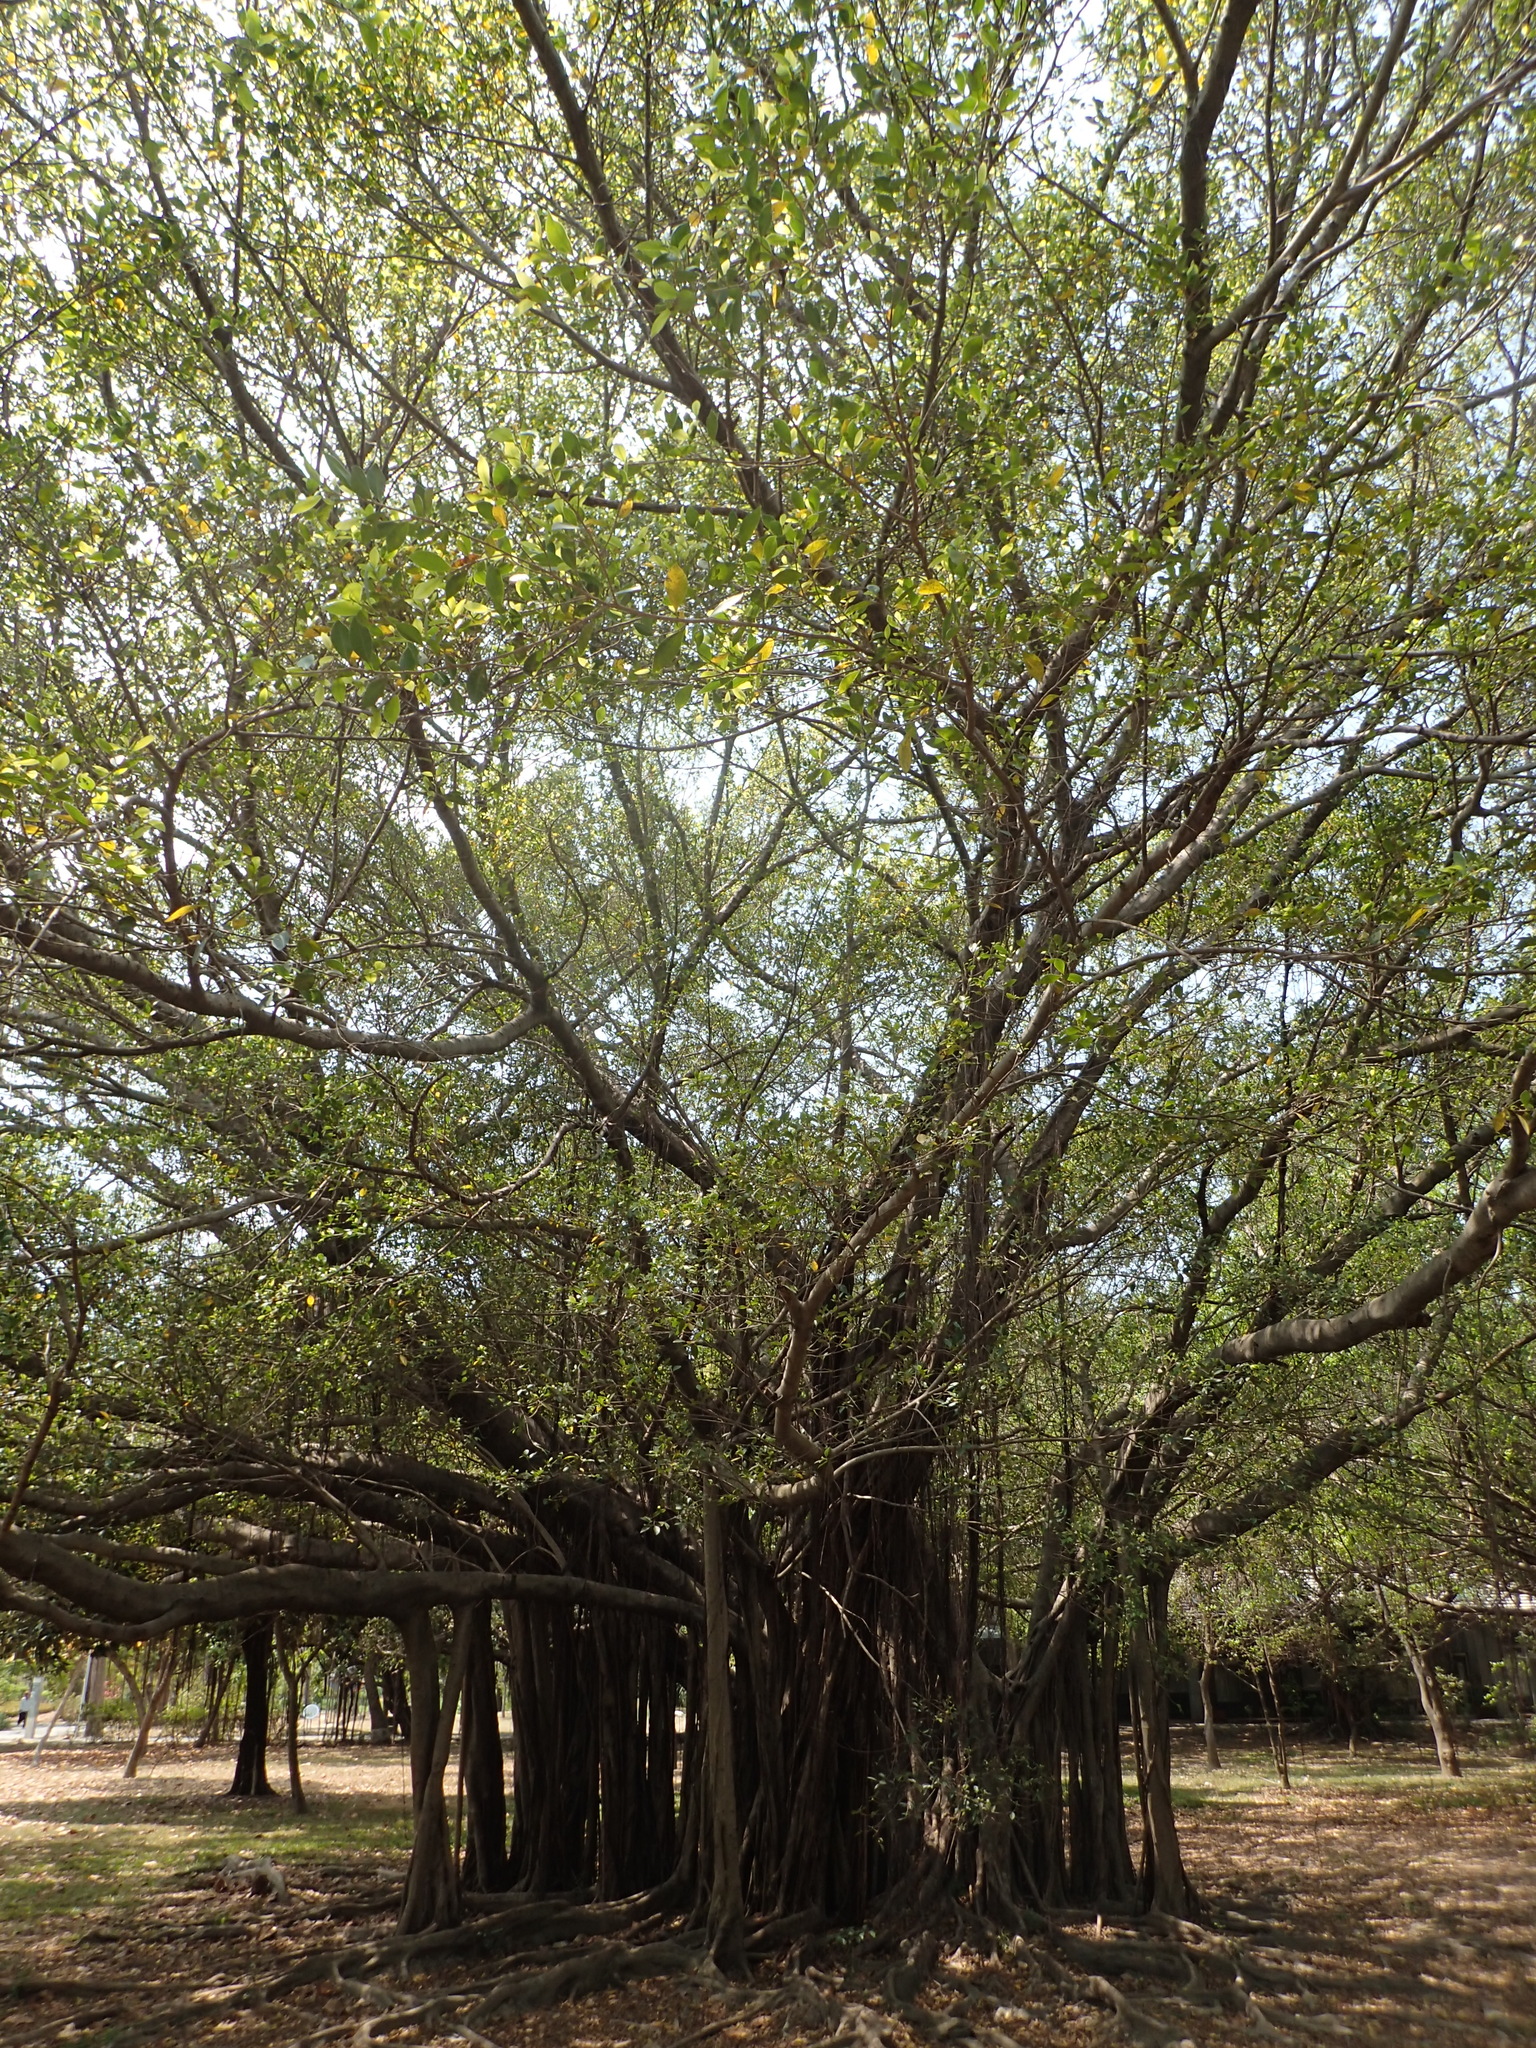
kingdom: Plantae
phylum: Tracheophyta
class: Magnoliopsida
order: Rosales
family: Moraceae
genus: Ficus
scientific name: Ficus microcarpa
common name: Chinese banyan
